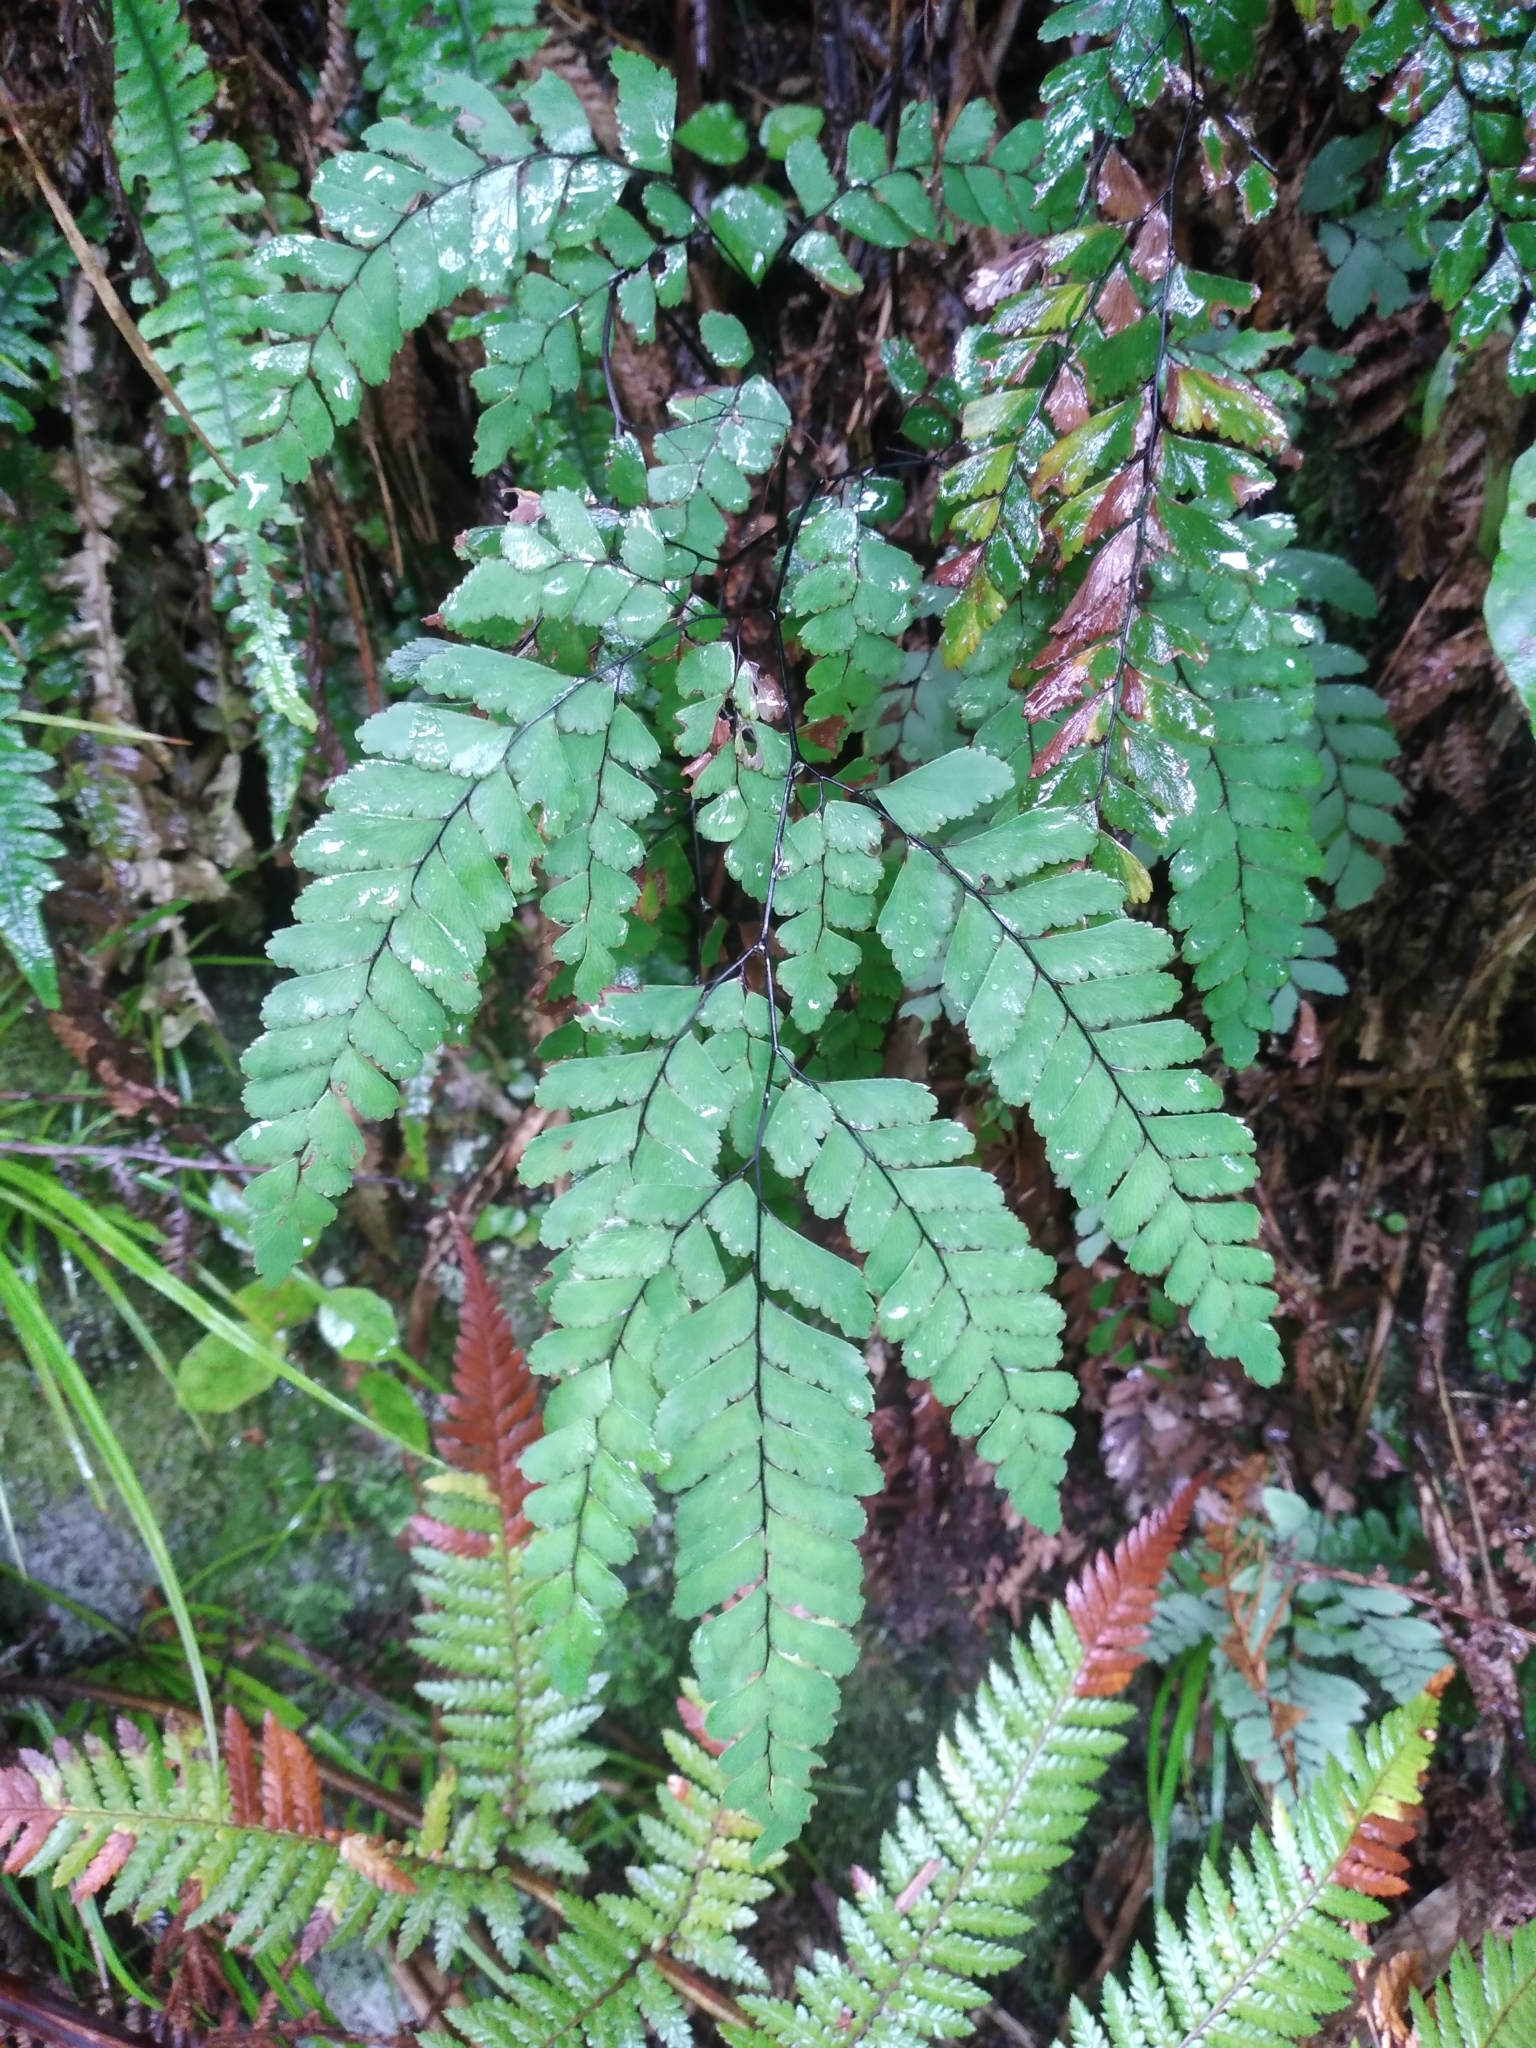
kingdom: Plantae
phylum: Tracheophyta
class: Polypodiopsida
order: Polypodiales
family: Pteridaceae
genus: Adiantum
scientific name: Adiantum cunninghamii
